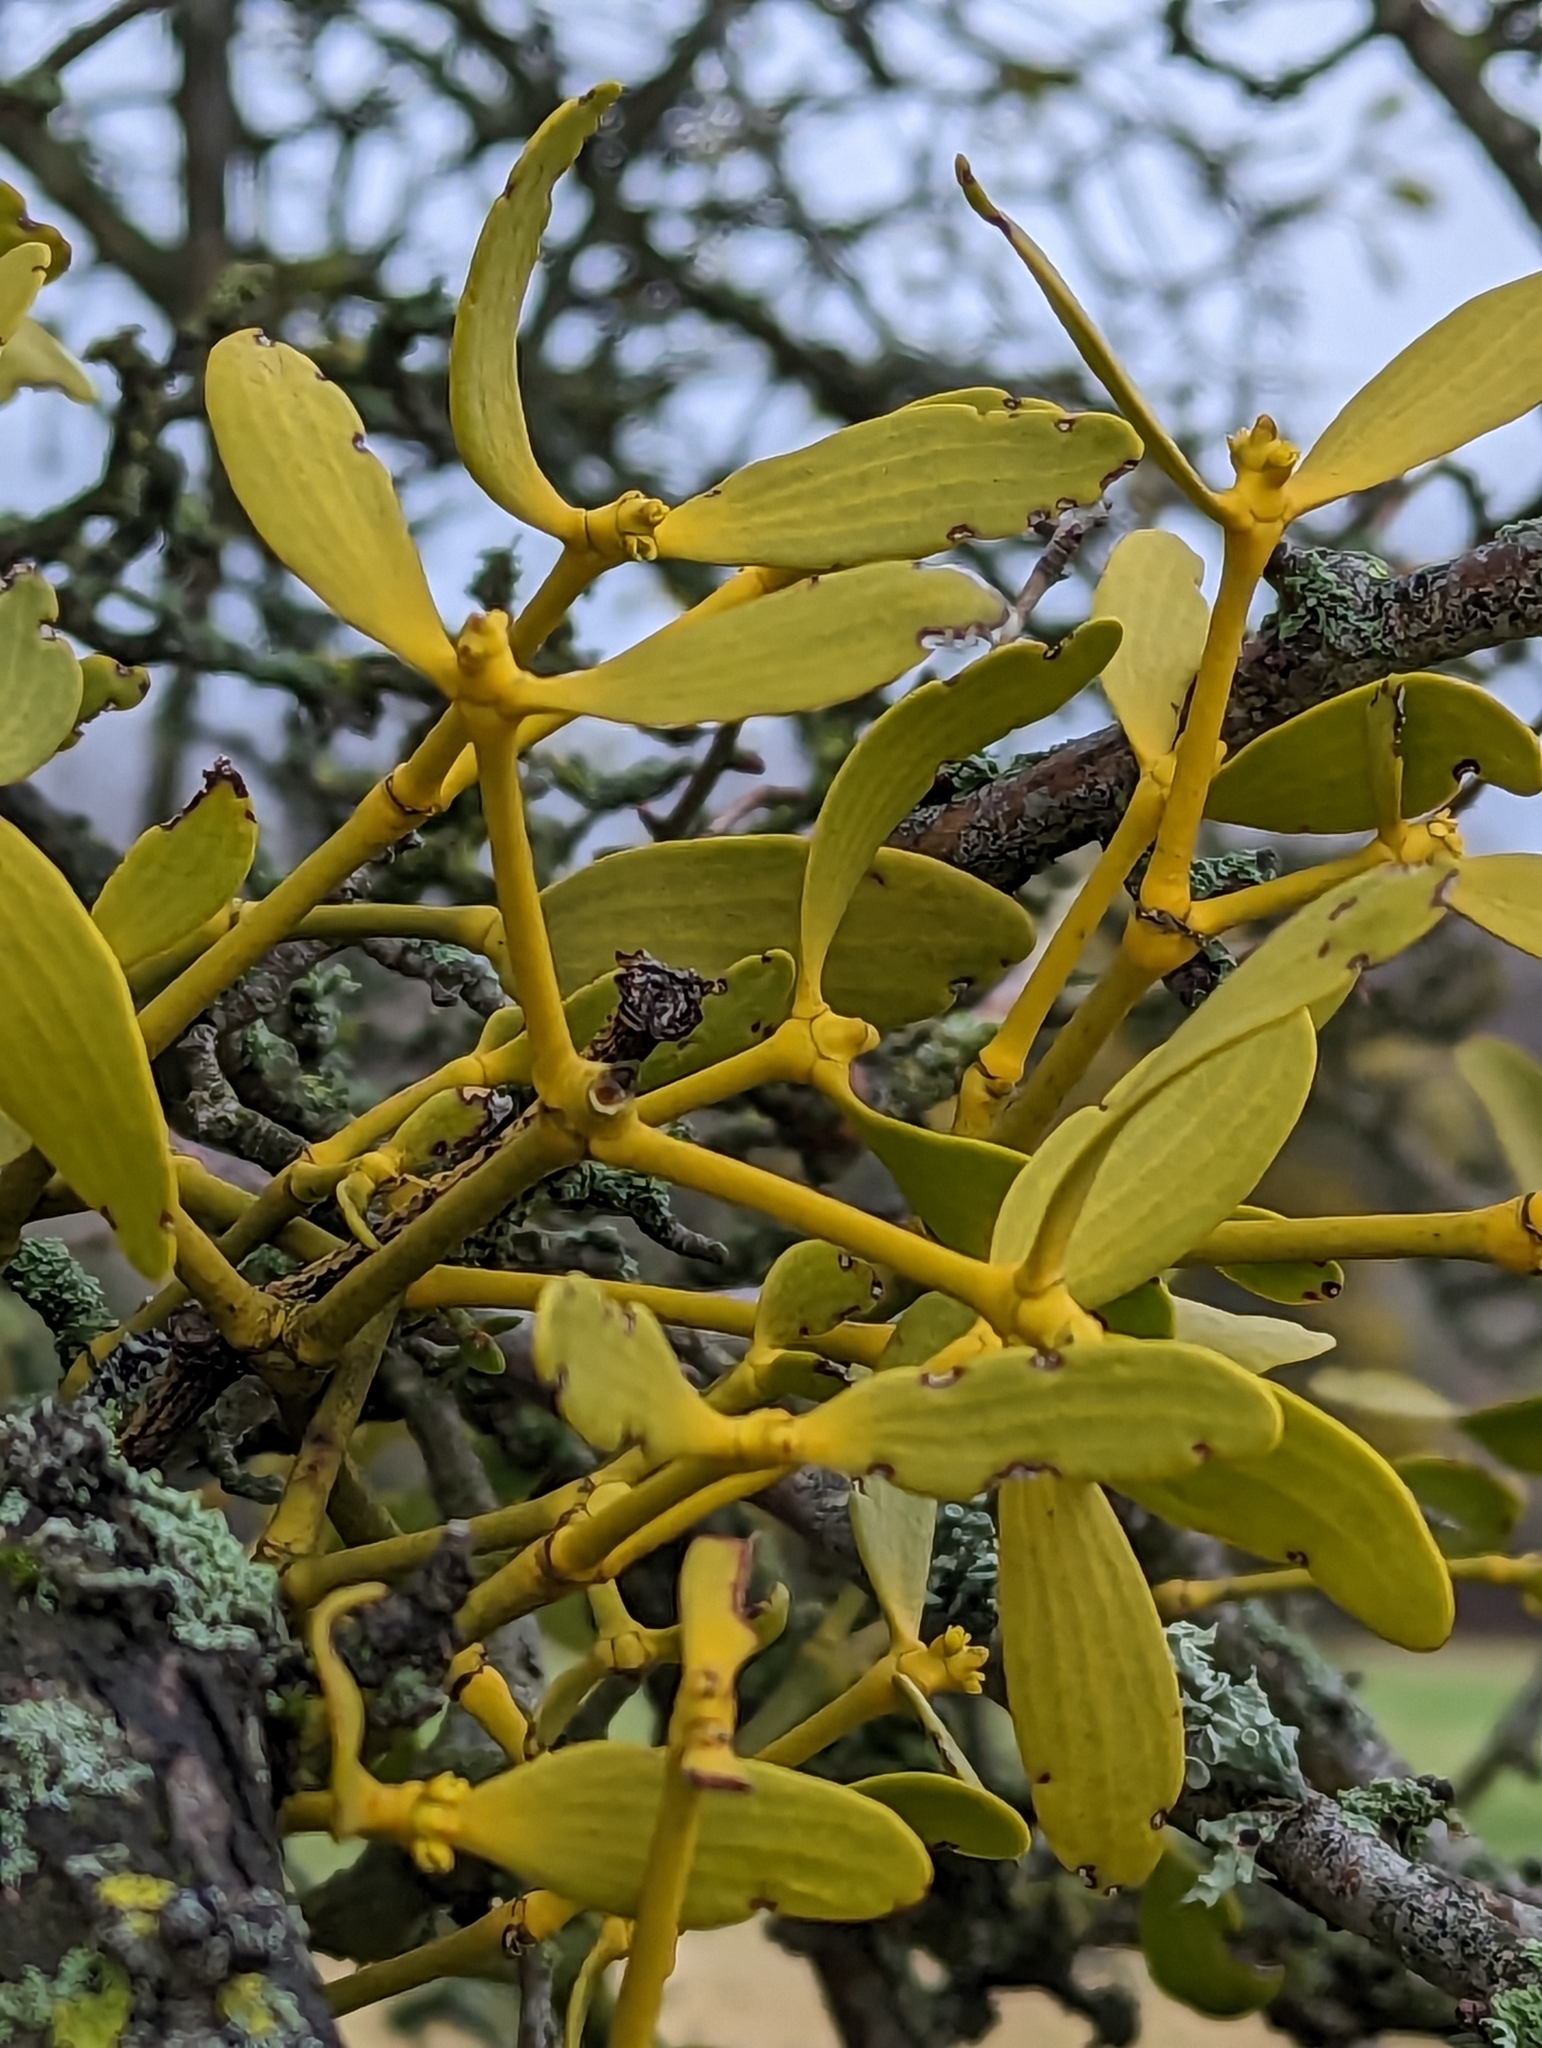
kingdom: Plantae
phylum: Tracheophyta
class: Magnoliopsida
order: Santalales
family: Viscaceae
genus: Viscum
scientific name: Viscum album
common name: Mistletoe
